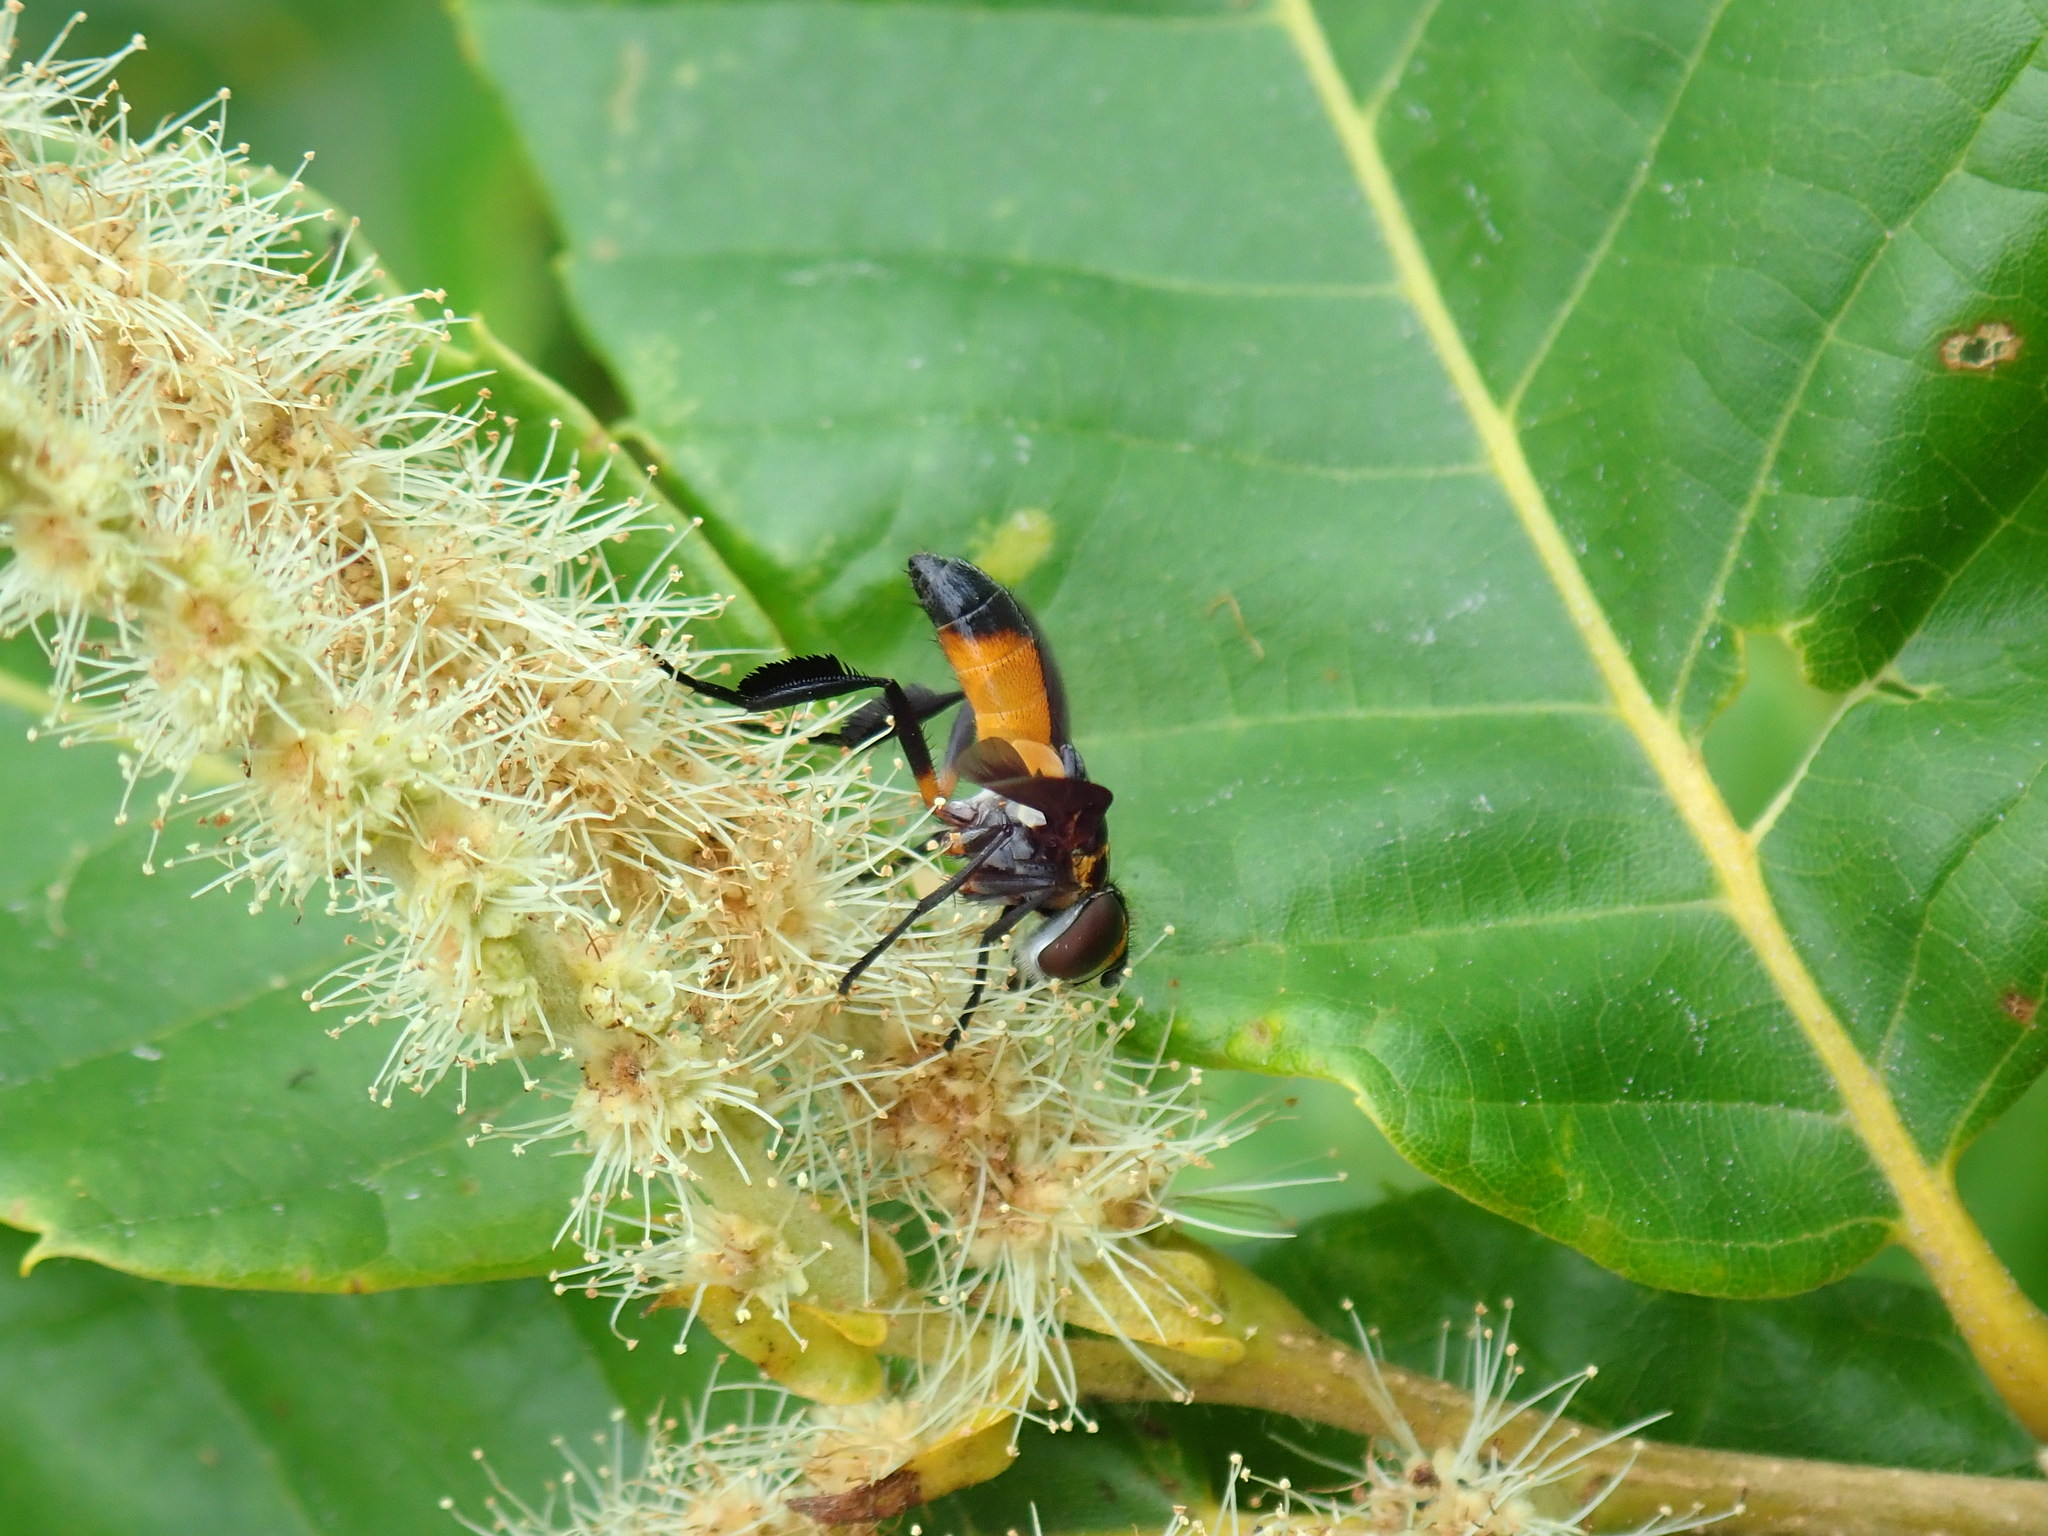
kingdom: Animalia
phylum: Arthropoda
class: Insecta
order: Diptera
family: Tachinidae
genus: Trichopoda
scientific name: Trichopoda pennipes
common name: Tachinid fly
